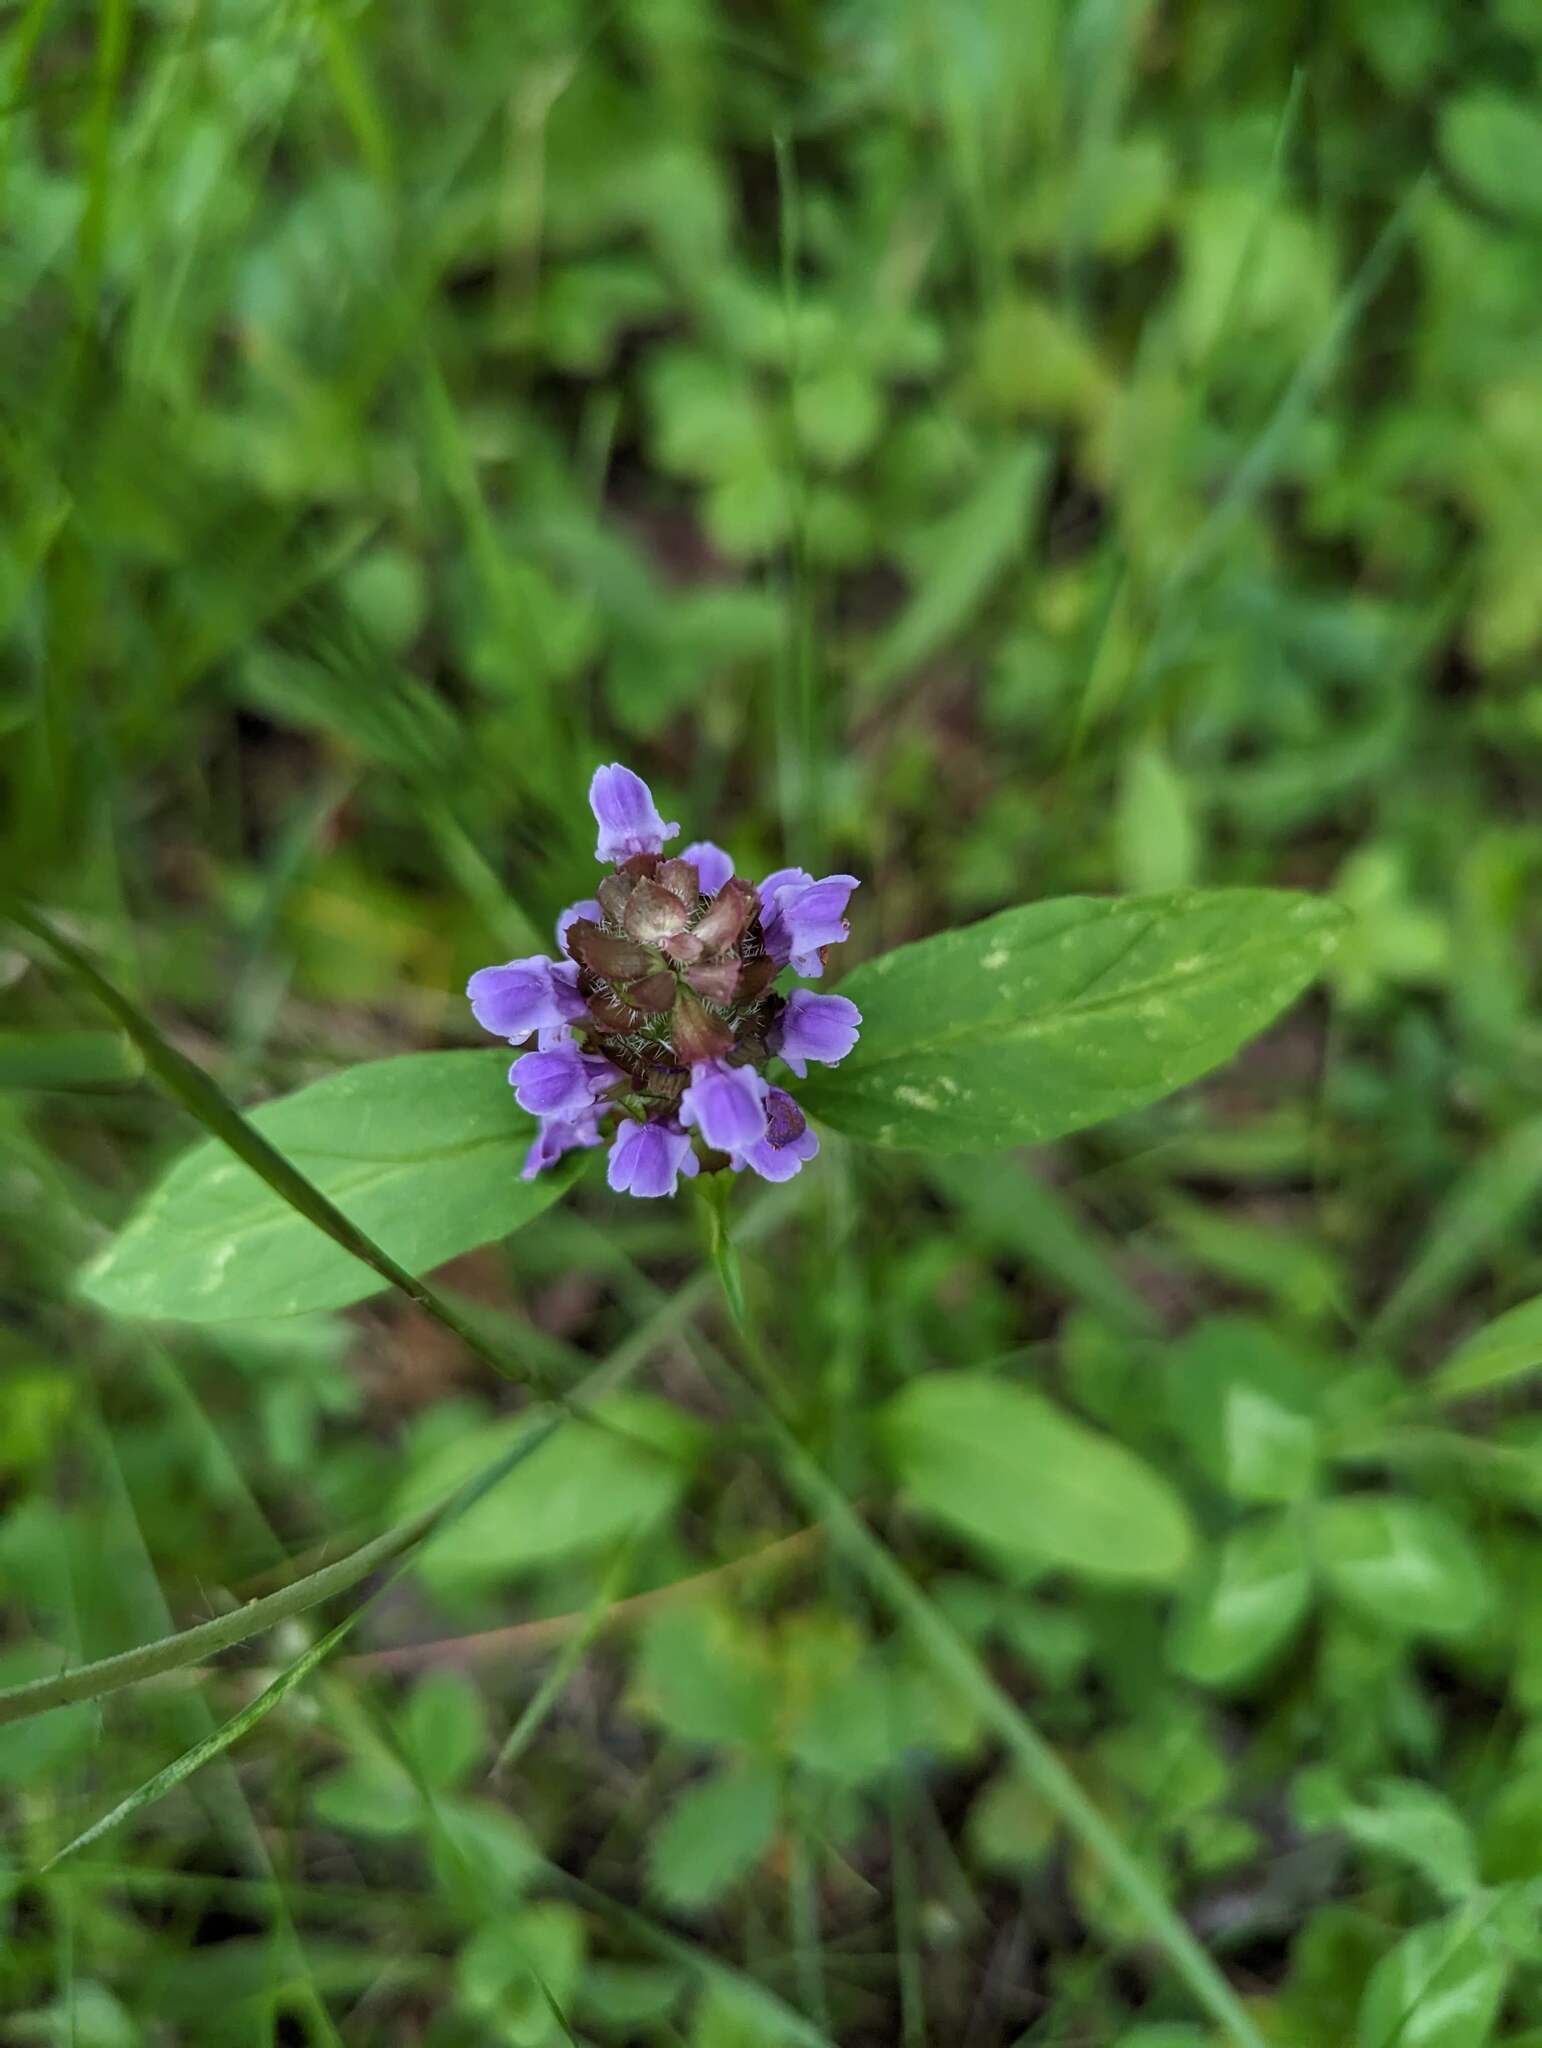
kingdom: Plantae
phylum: Tracheophyta
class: Magnoliopsida
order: Lamiales
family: Lamiaceae
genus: Prunella
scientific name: Prunella vulgaris
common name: Heal-all
